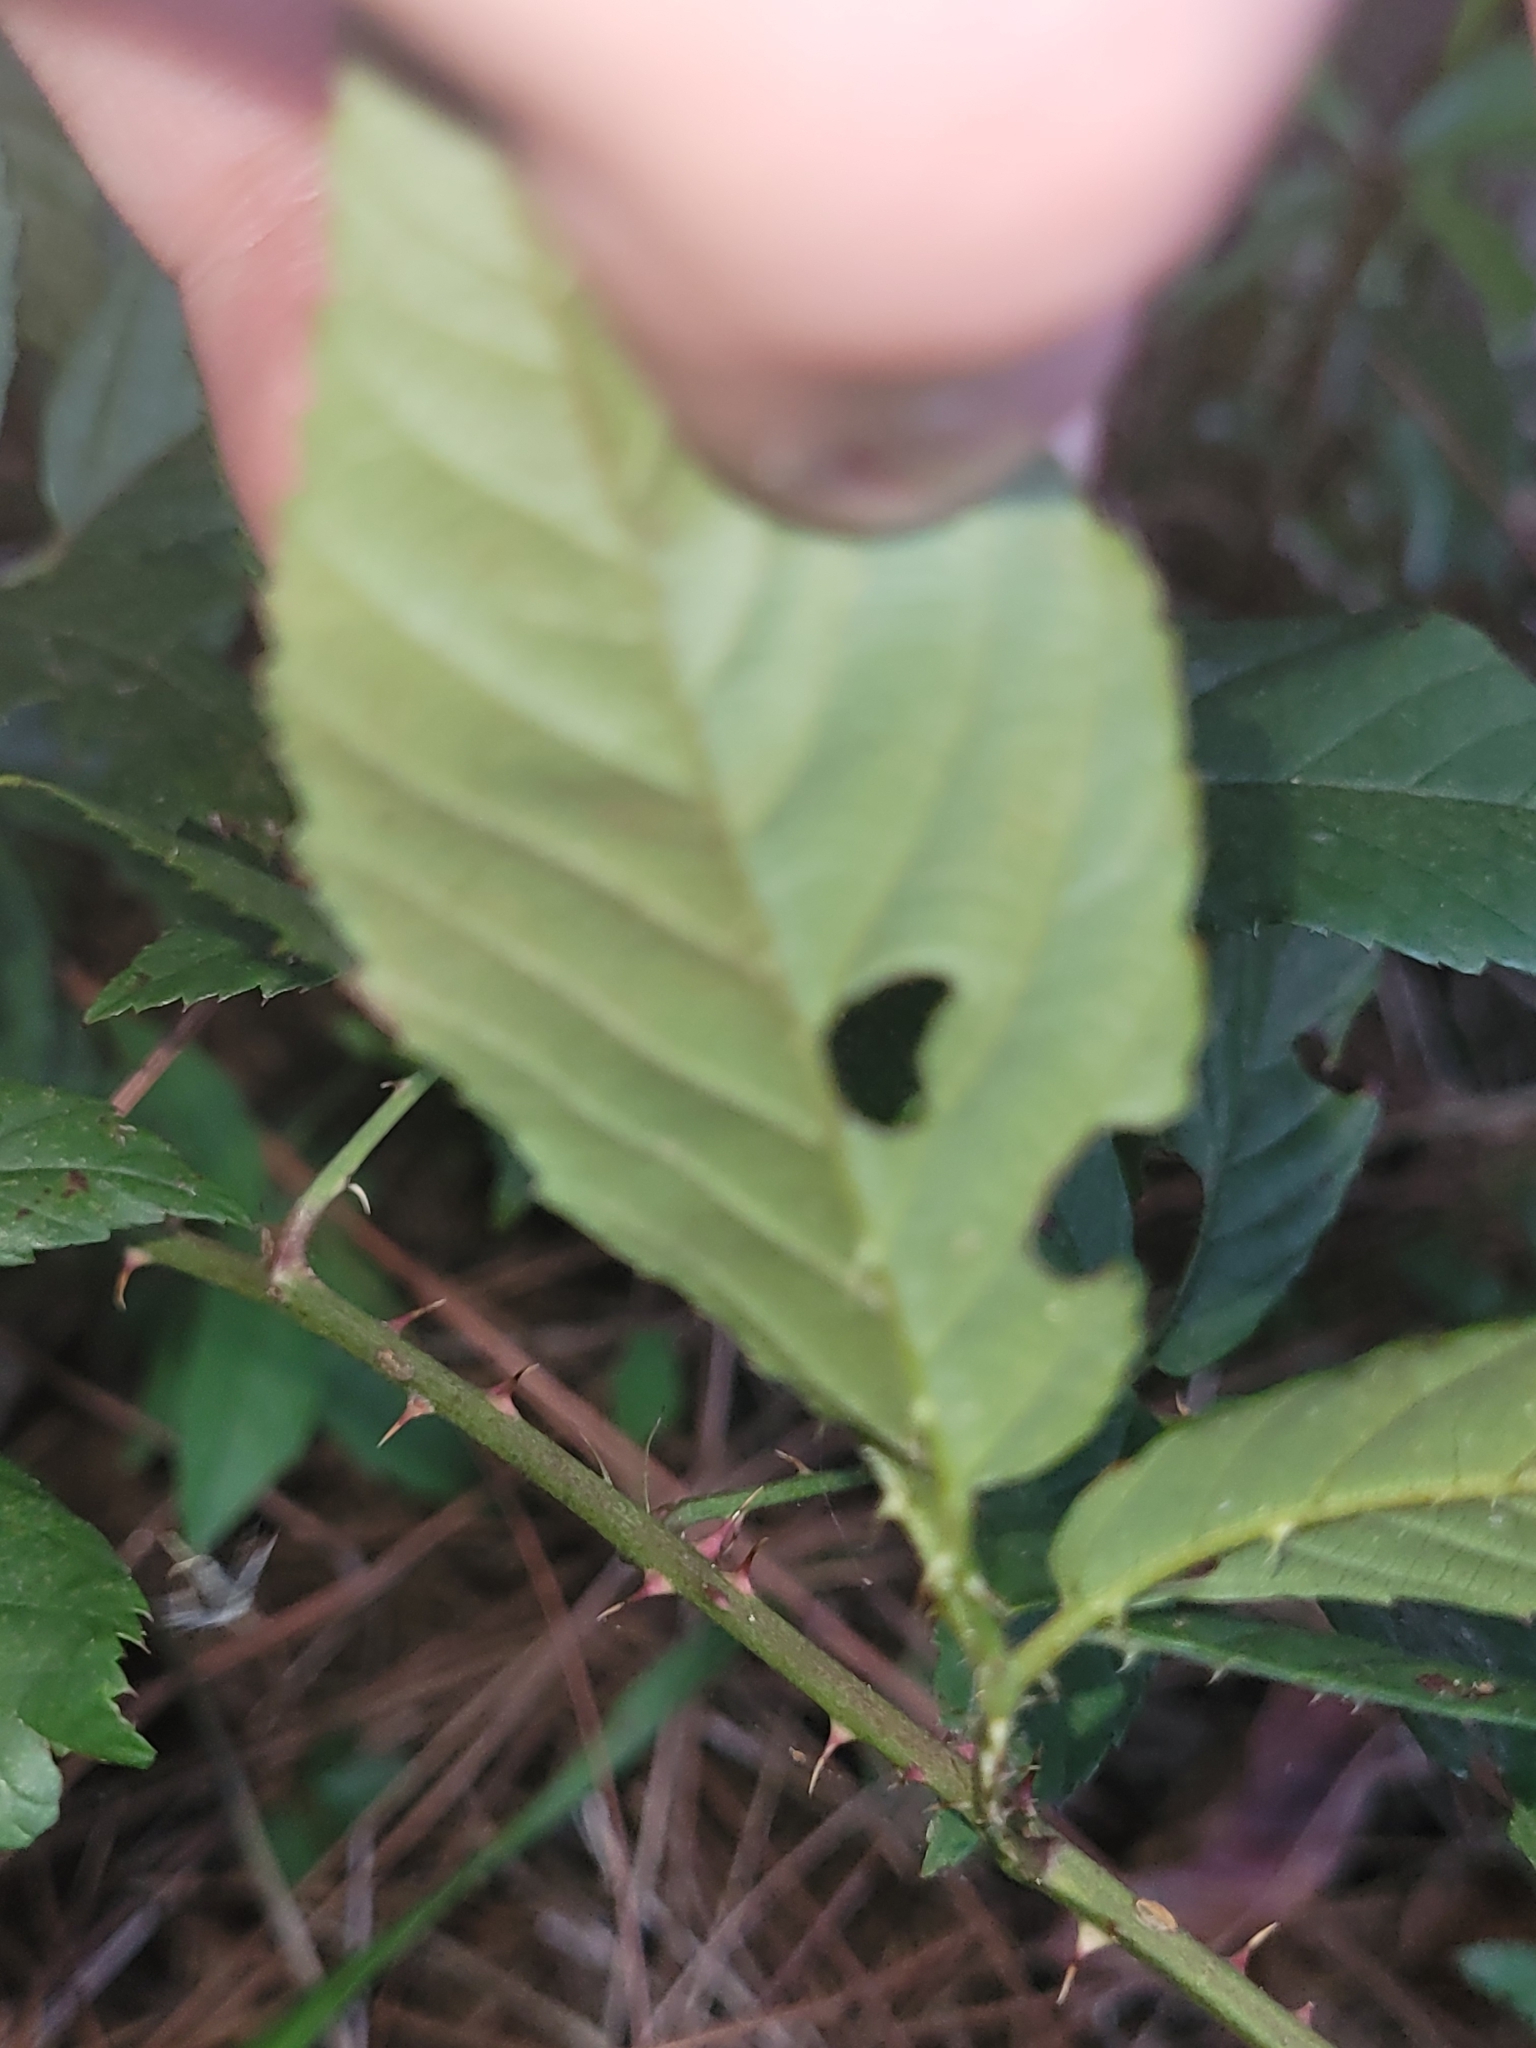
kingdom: Plantae
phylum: Tracheophyta
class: Magnoliopsida
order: Rosales
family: Rosaceae
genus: Rubus
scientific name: Rubus pensilvanicus
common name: Pennsylvania blackberry
